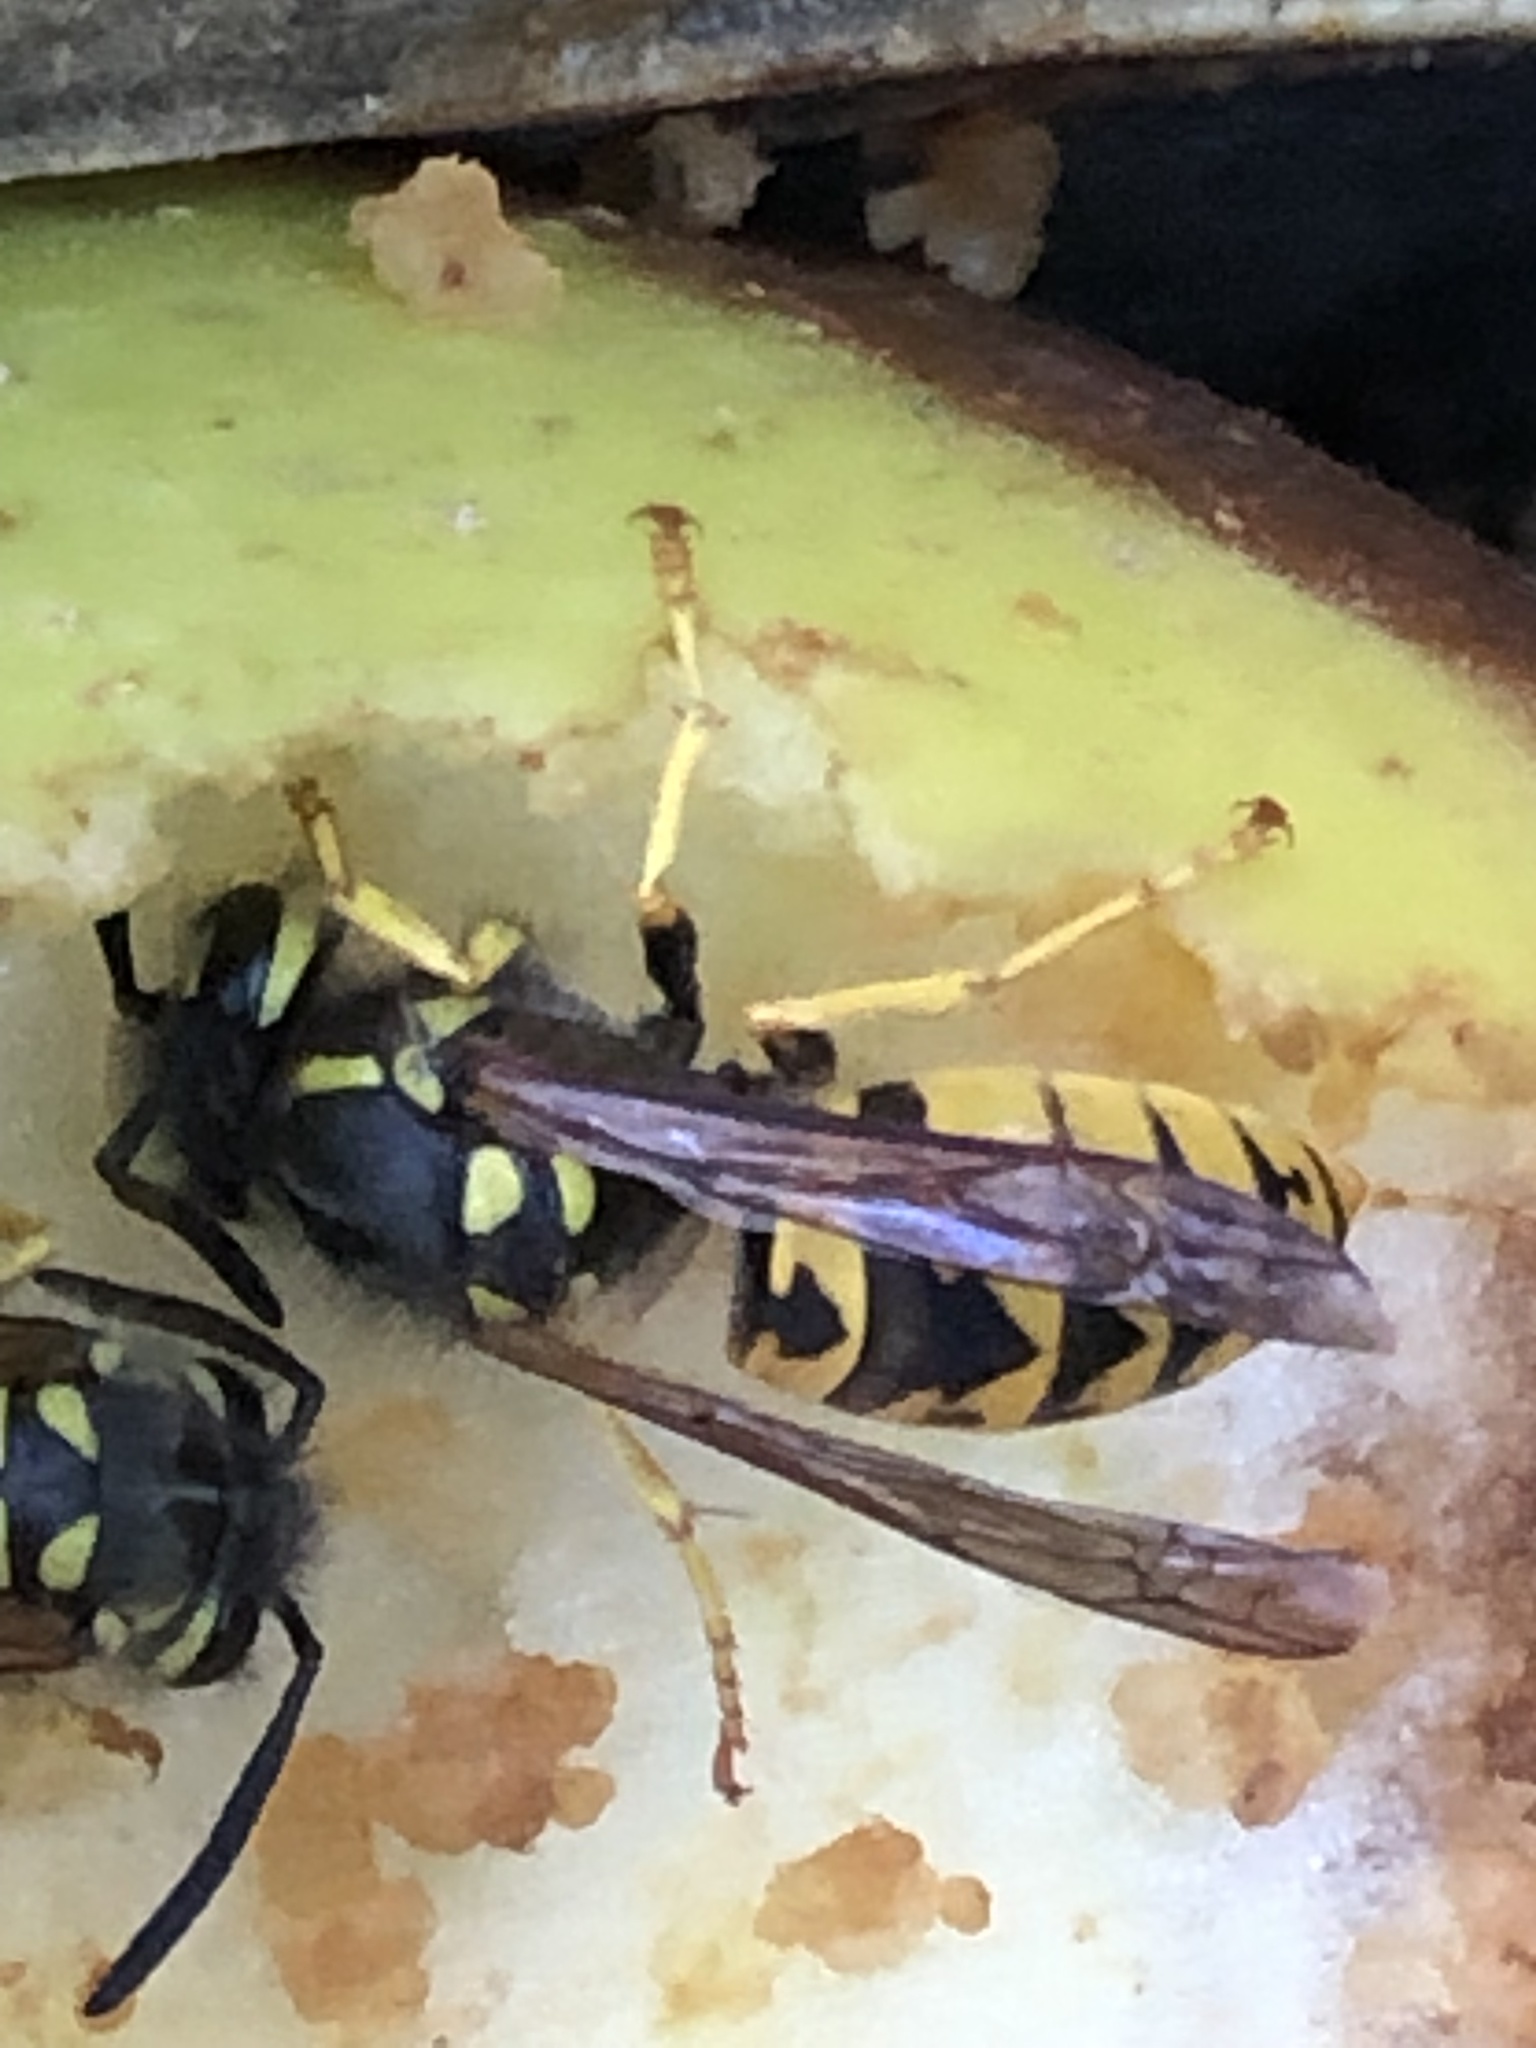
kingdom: Animalia
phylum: Arthropoda
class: Insecta
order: Hymenoptera
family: Vespidae
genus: Vespula
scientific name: Vespula germanica
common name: German wasp
